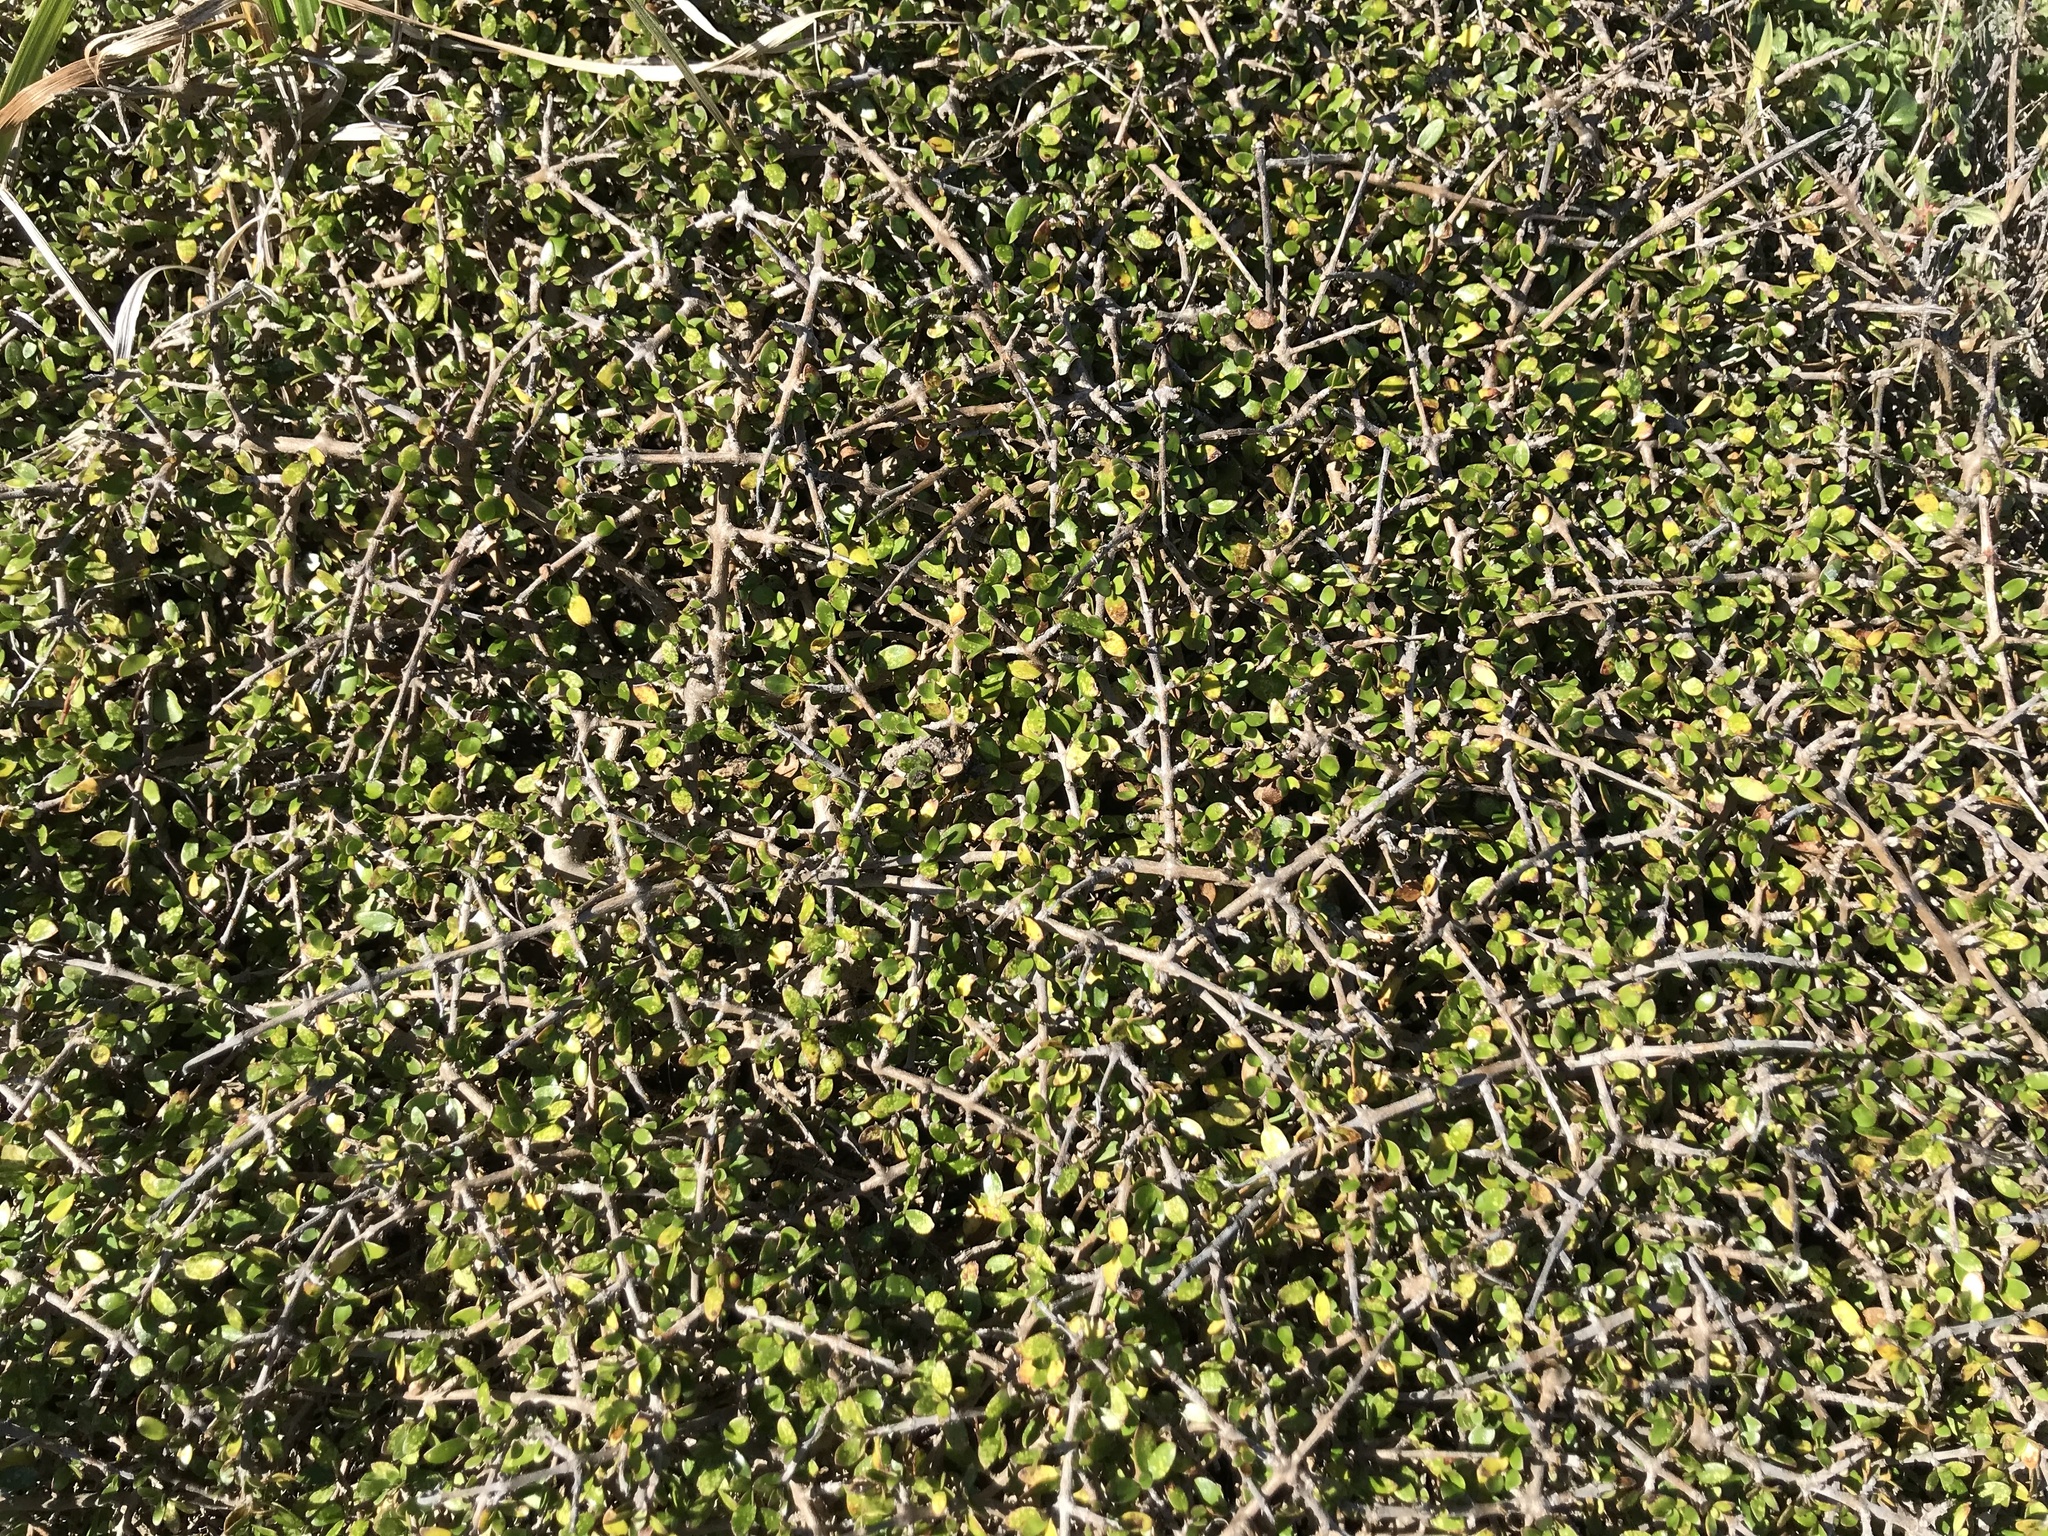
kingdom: Plantae
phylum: Tracheophyta
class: Magnoliopsida
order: Gentianales
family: Rubiaceae
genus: Coprosma
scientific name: Coprosma propinqua
